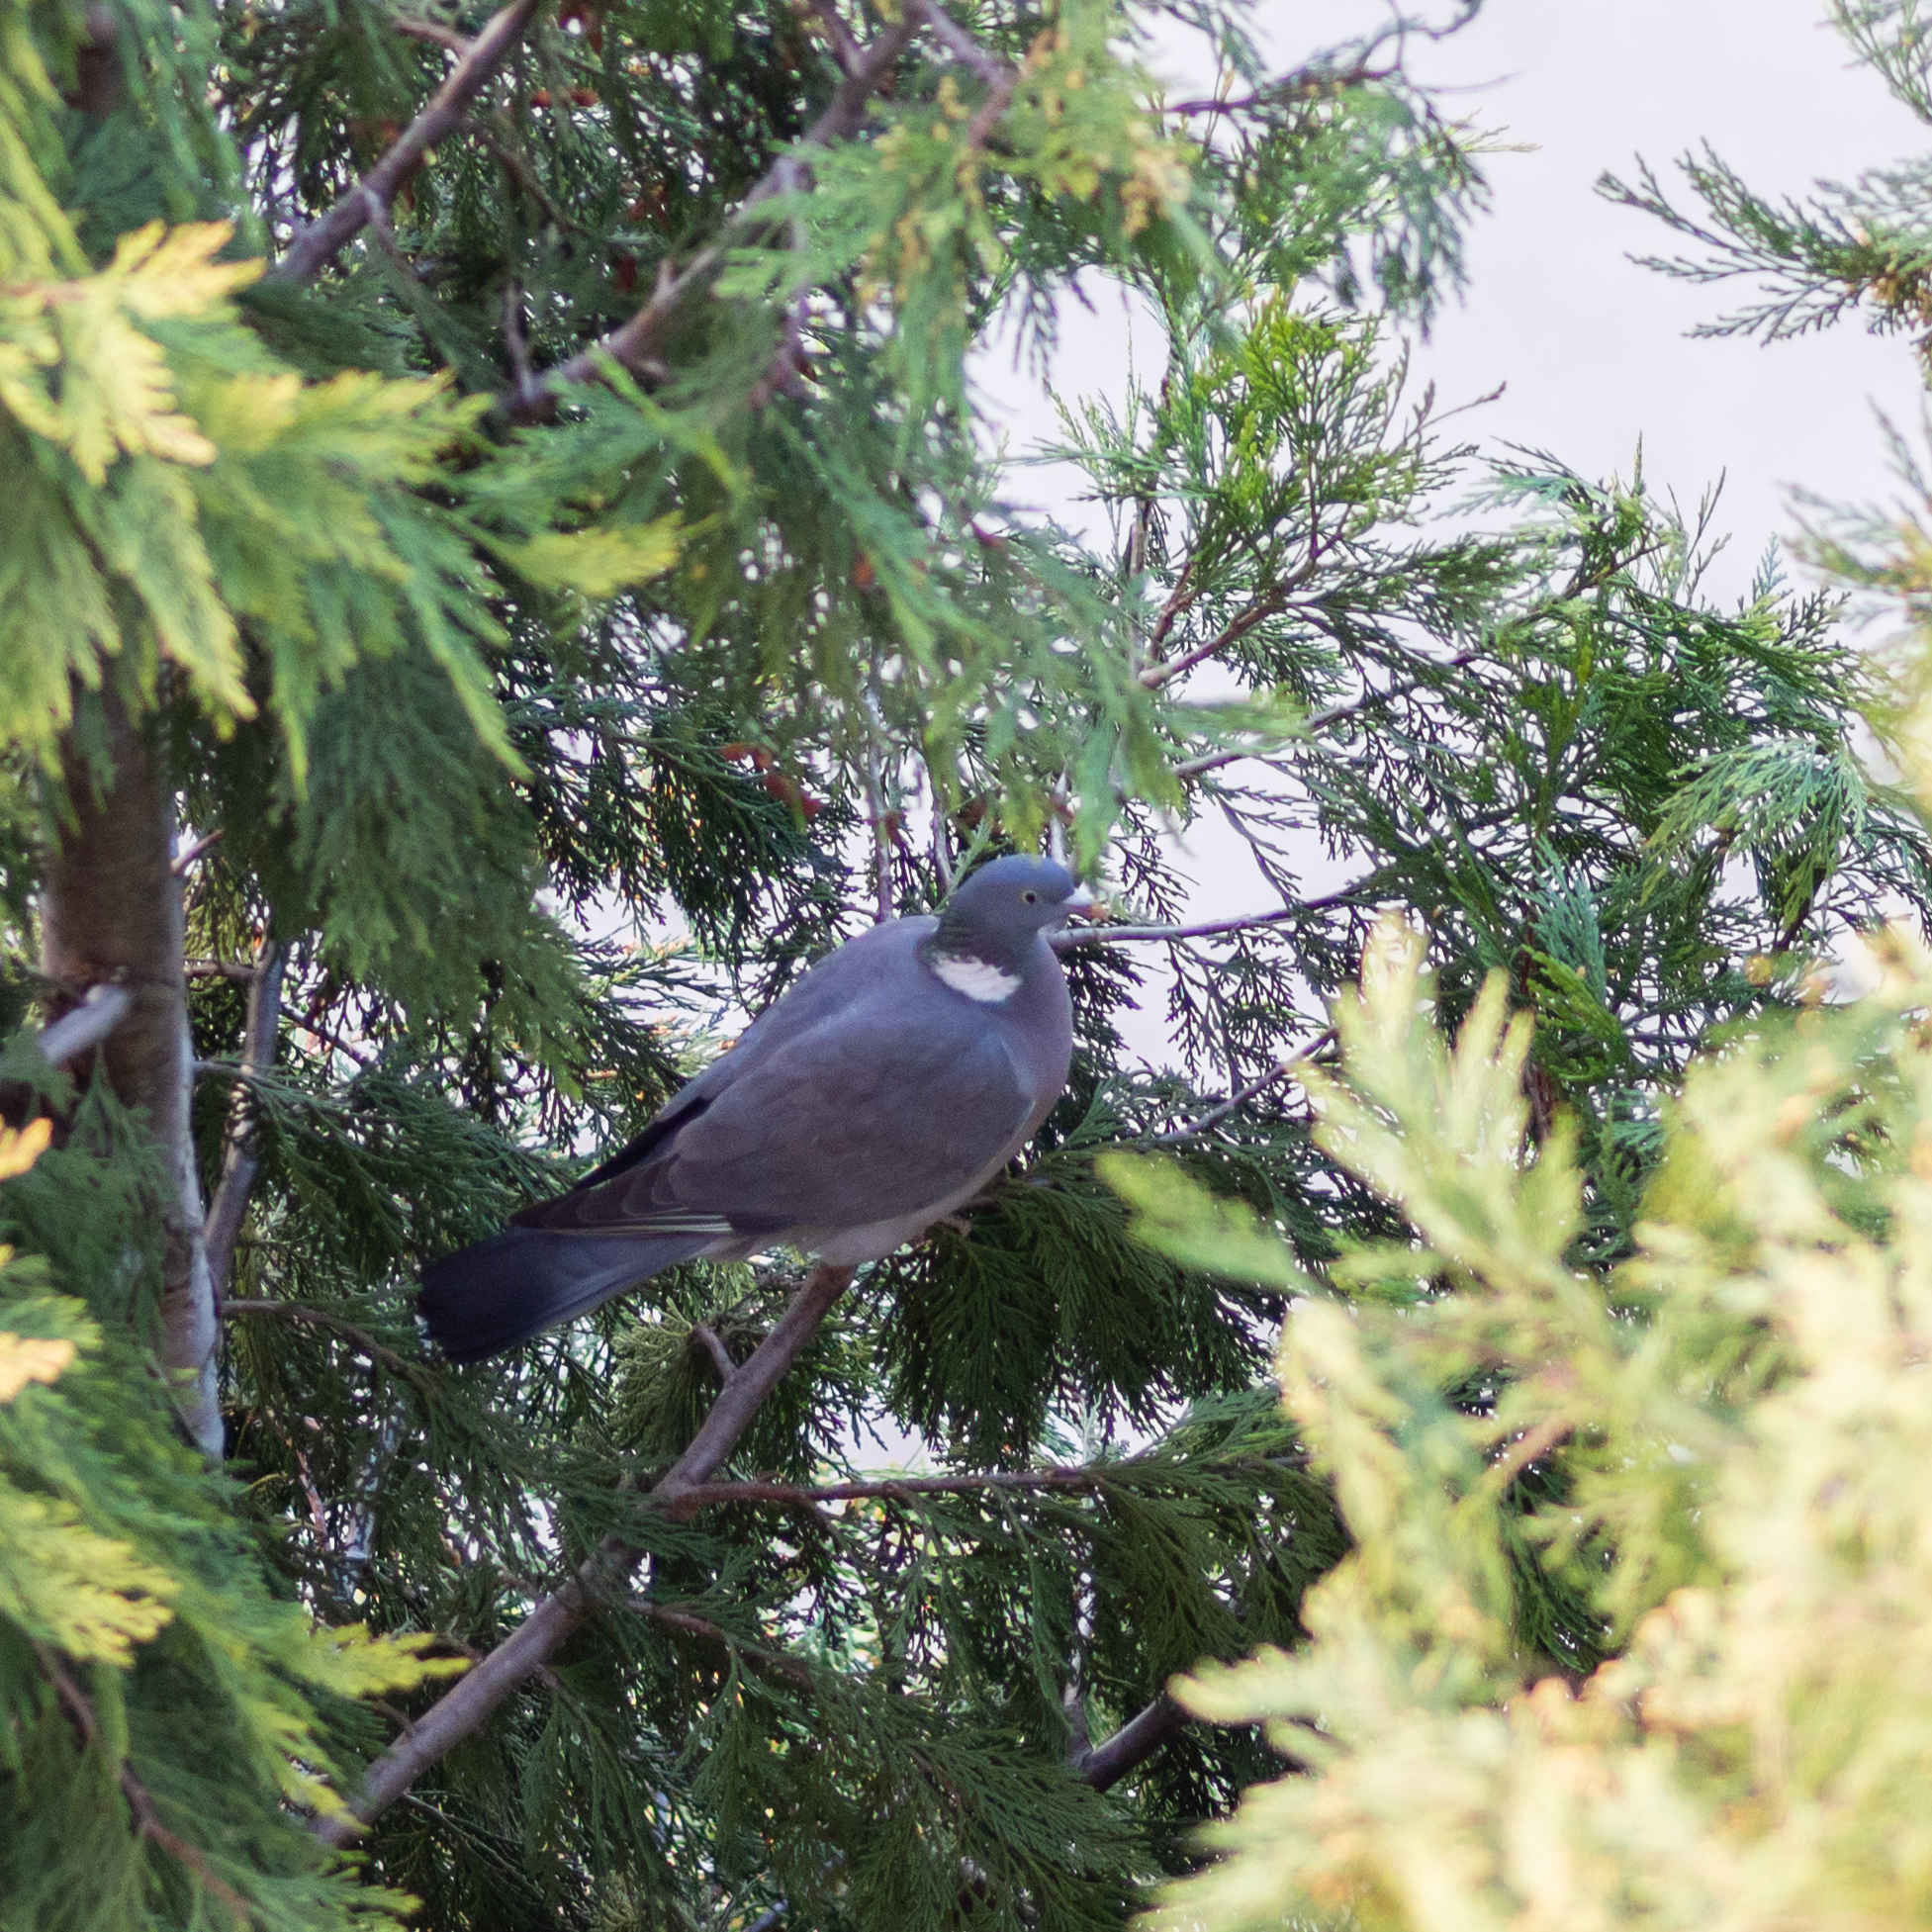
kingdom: Animalia
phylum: Chordata
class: Aves
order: Columbiformes
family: Columbidae
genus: Columba
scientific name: Columba palumbus
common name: Common wood pigeon
